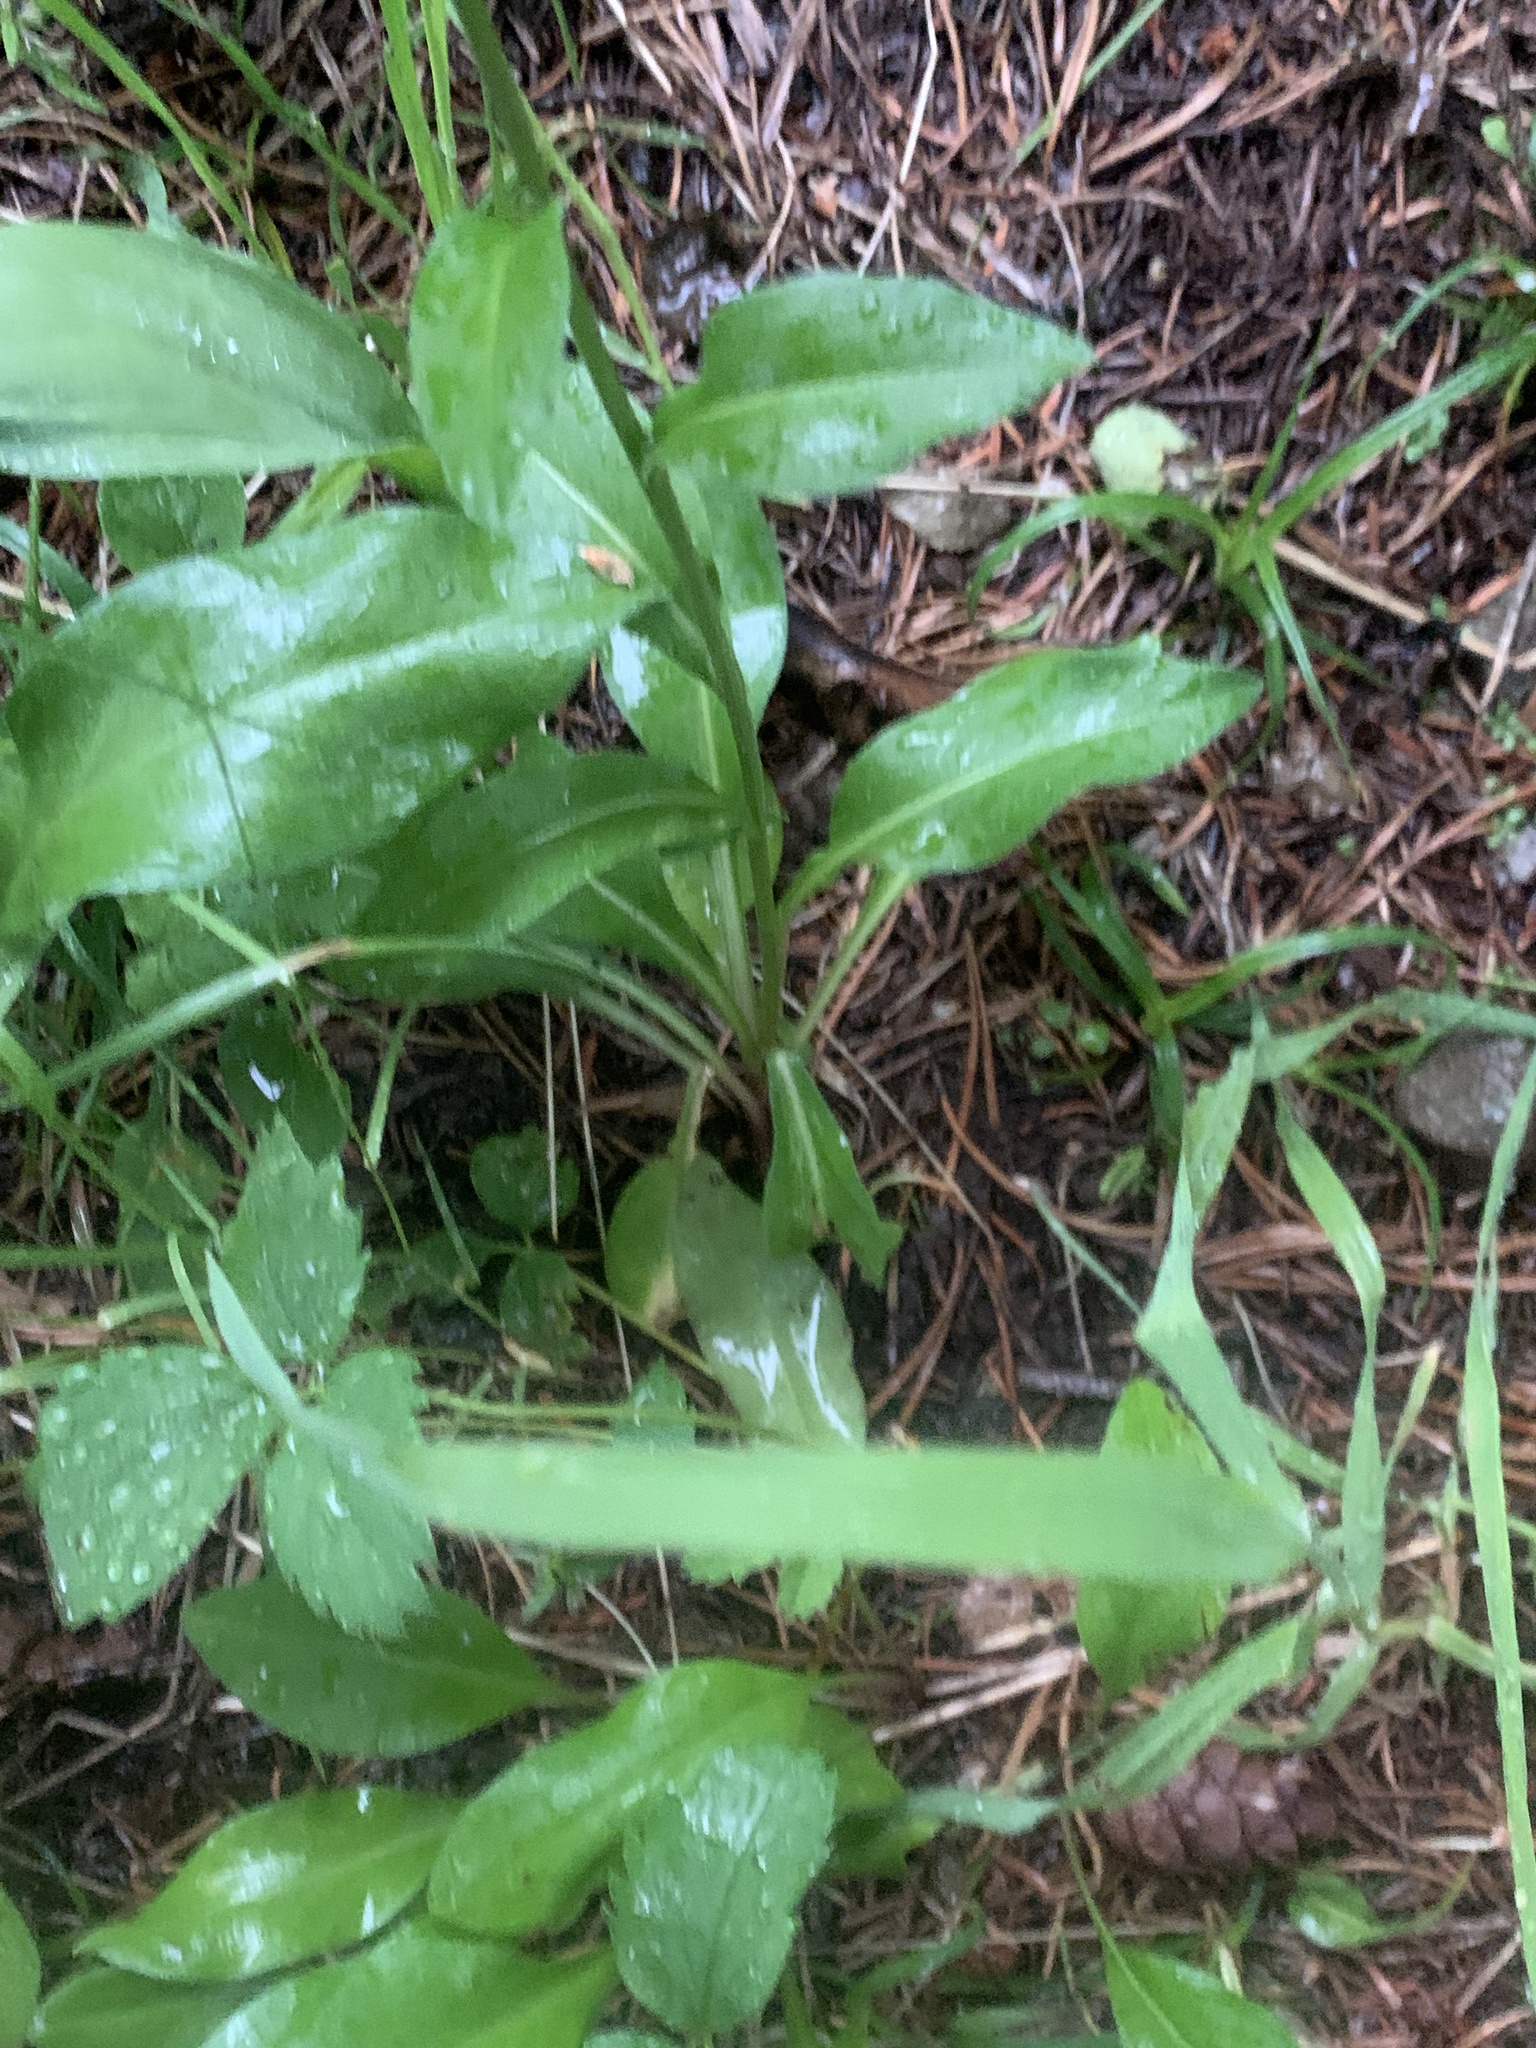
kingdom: Plantae
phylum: Tracheophyta
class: Magnoliopsida
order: Asterales
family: Asteraceae
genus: Erigeron
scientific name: Erigeron glacialis
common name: Subalpine fleabane
